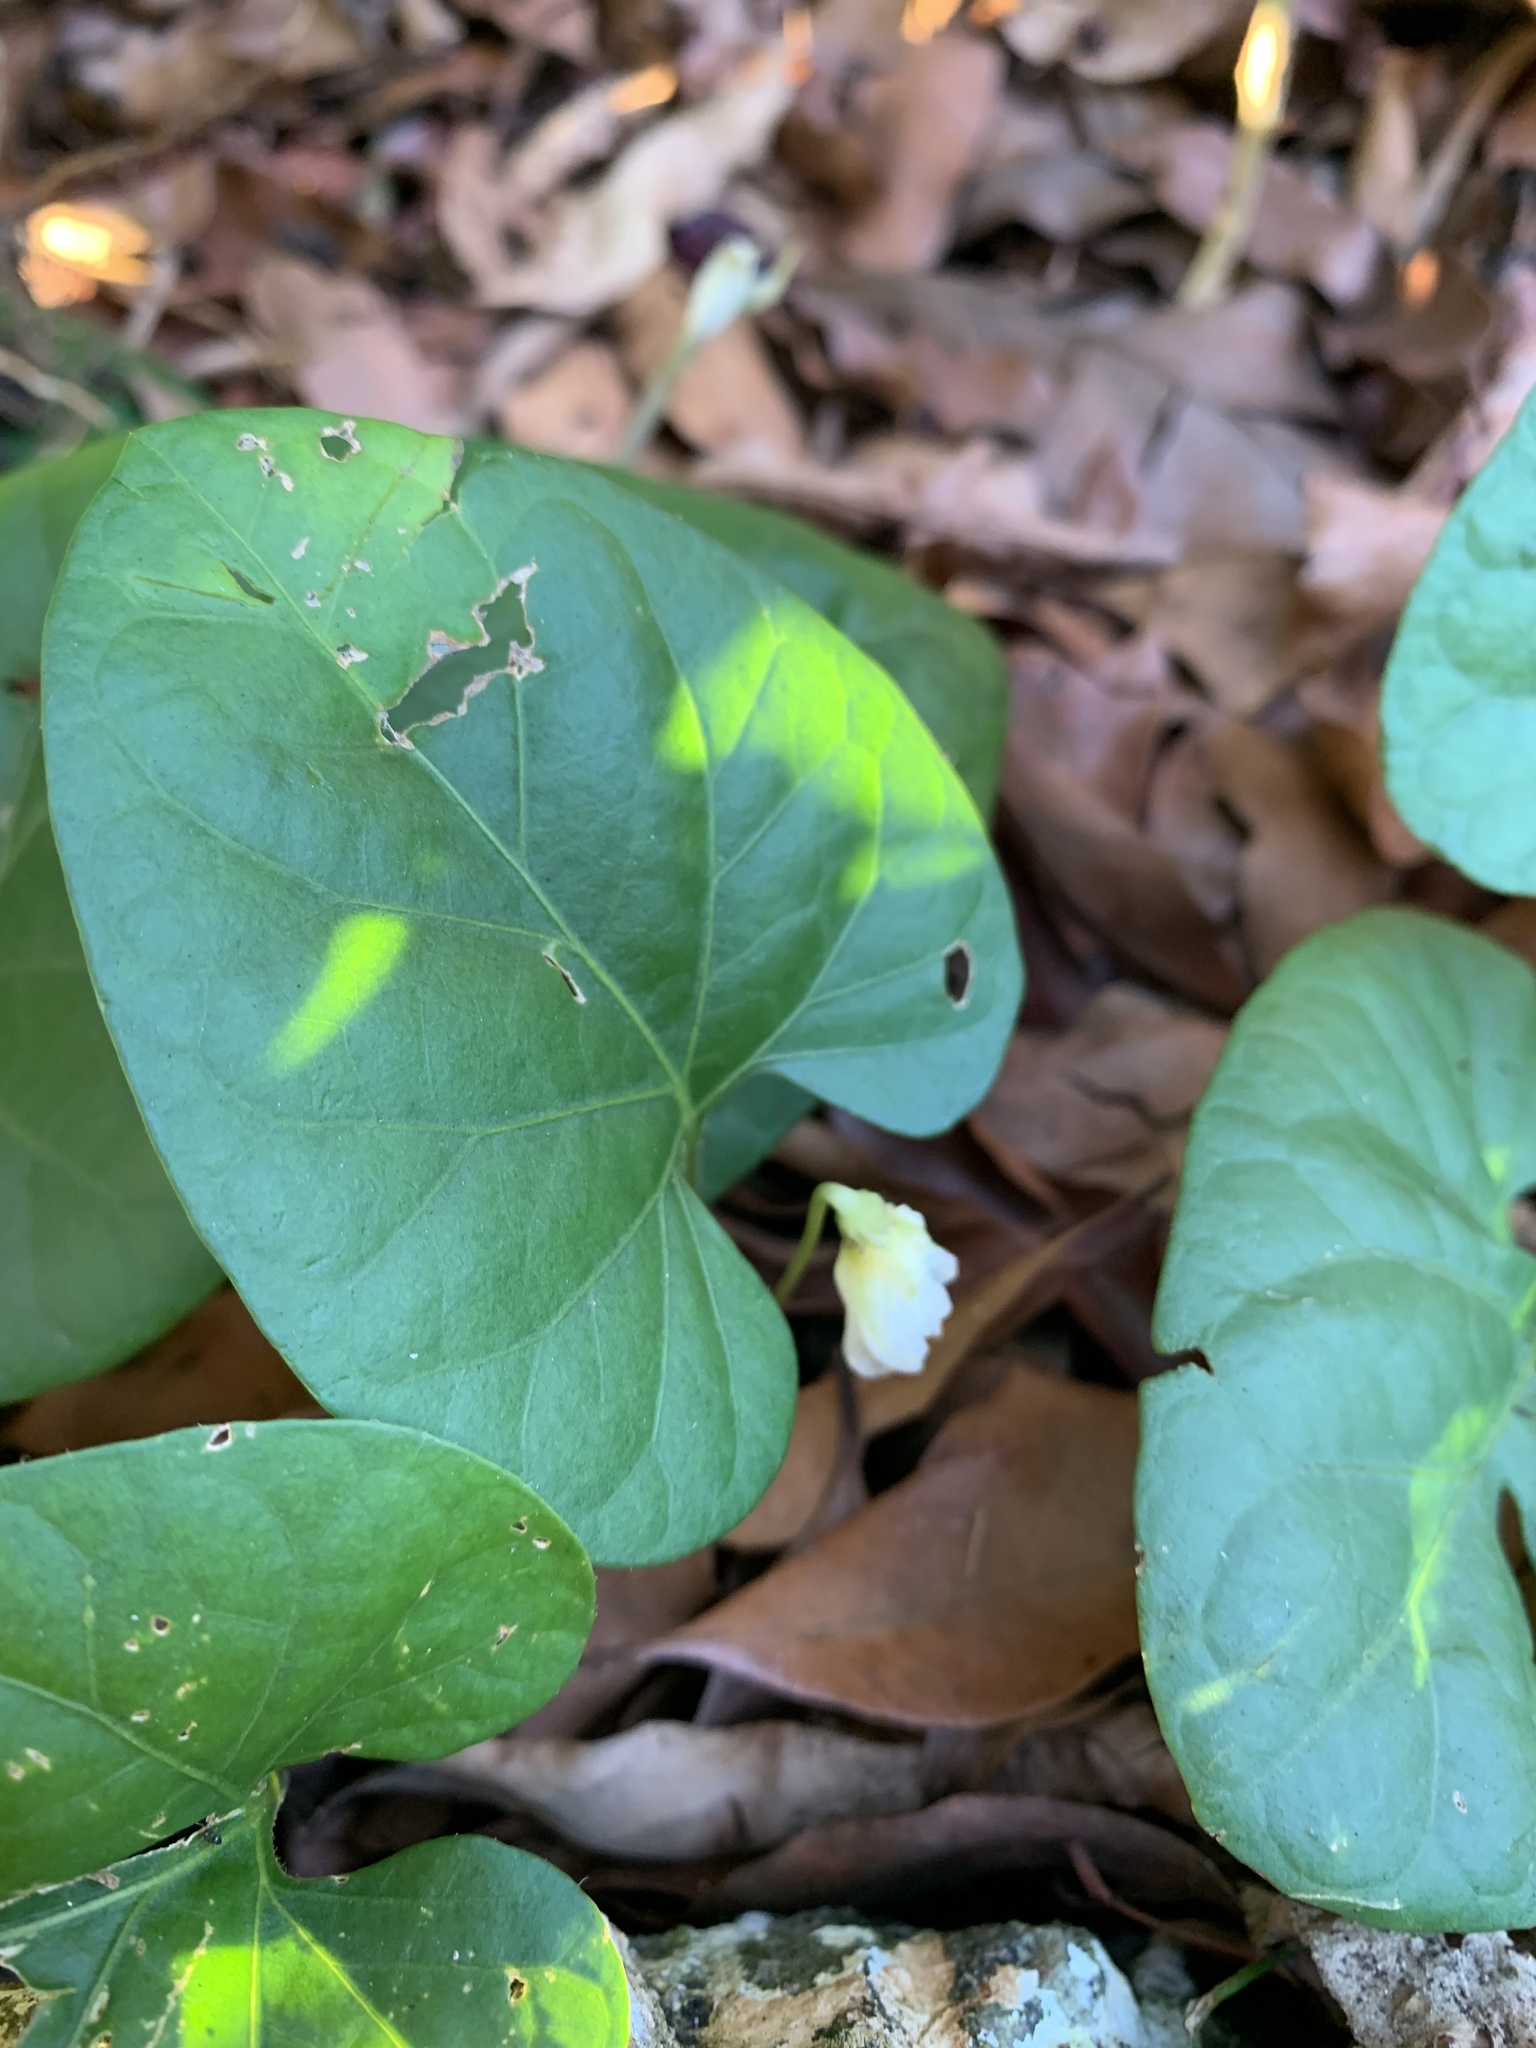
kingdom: Plantae
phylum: Tracheophyta
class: Magnoliopsida
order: Solanales
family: Solanaceae
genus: Lycianthes
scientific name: Lycianthes repens
